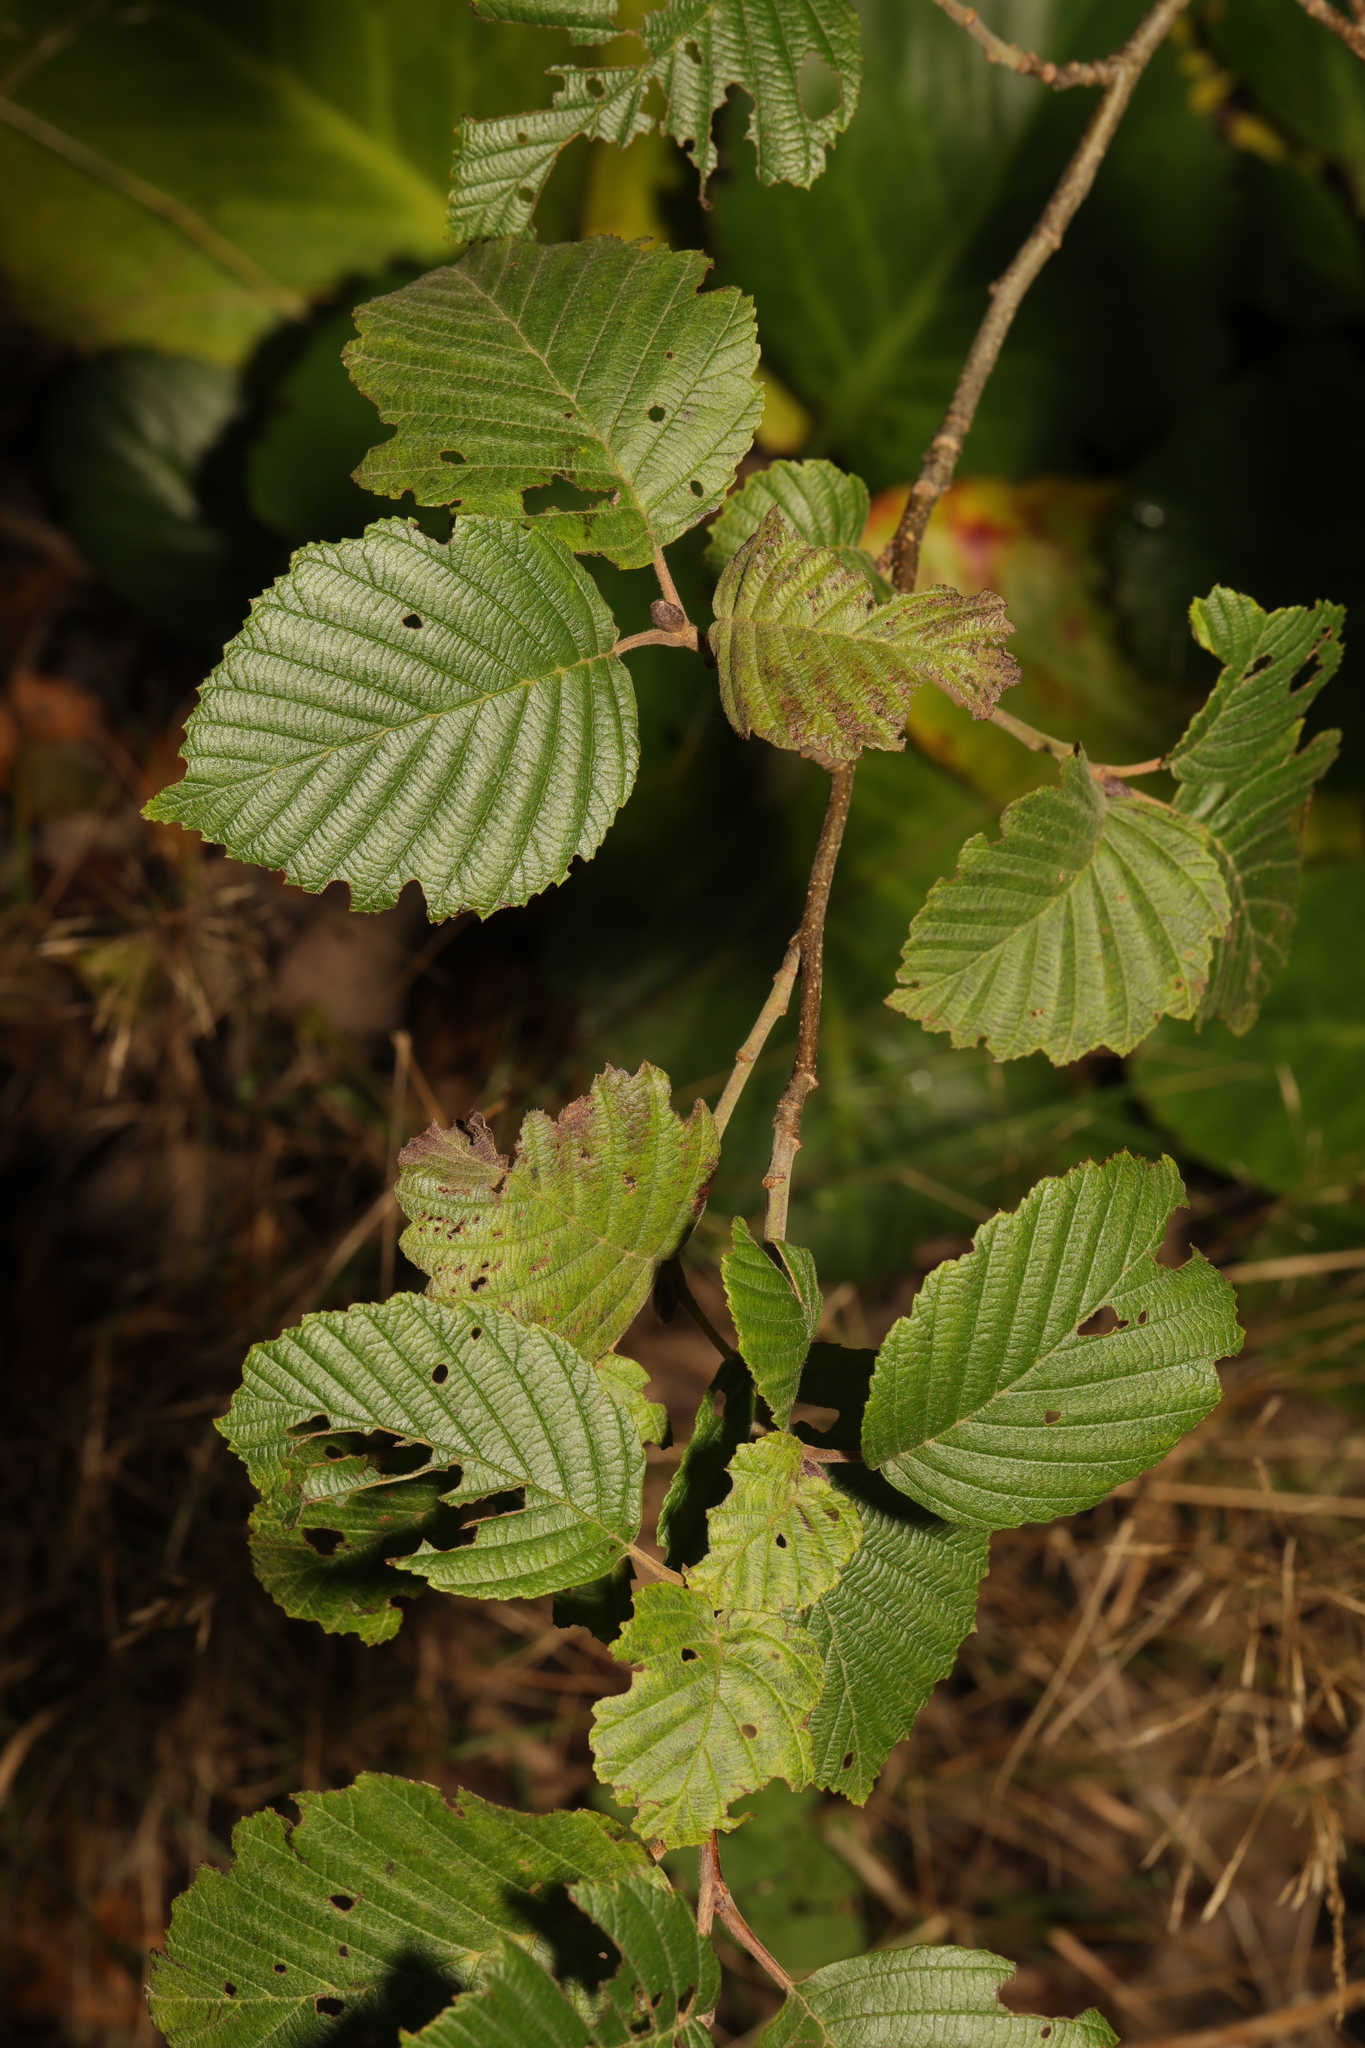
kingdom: Plantae
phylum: Tracheophyta
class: Magnoliopsida
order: Fagales
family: Betulaceae
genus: Alnus
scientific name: Alnus incana
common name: Grey alder
